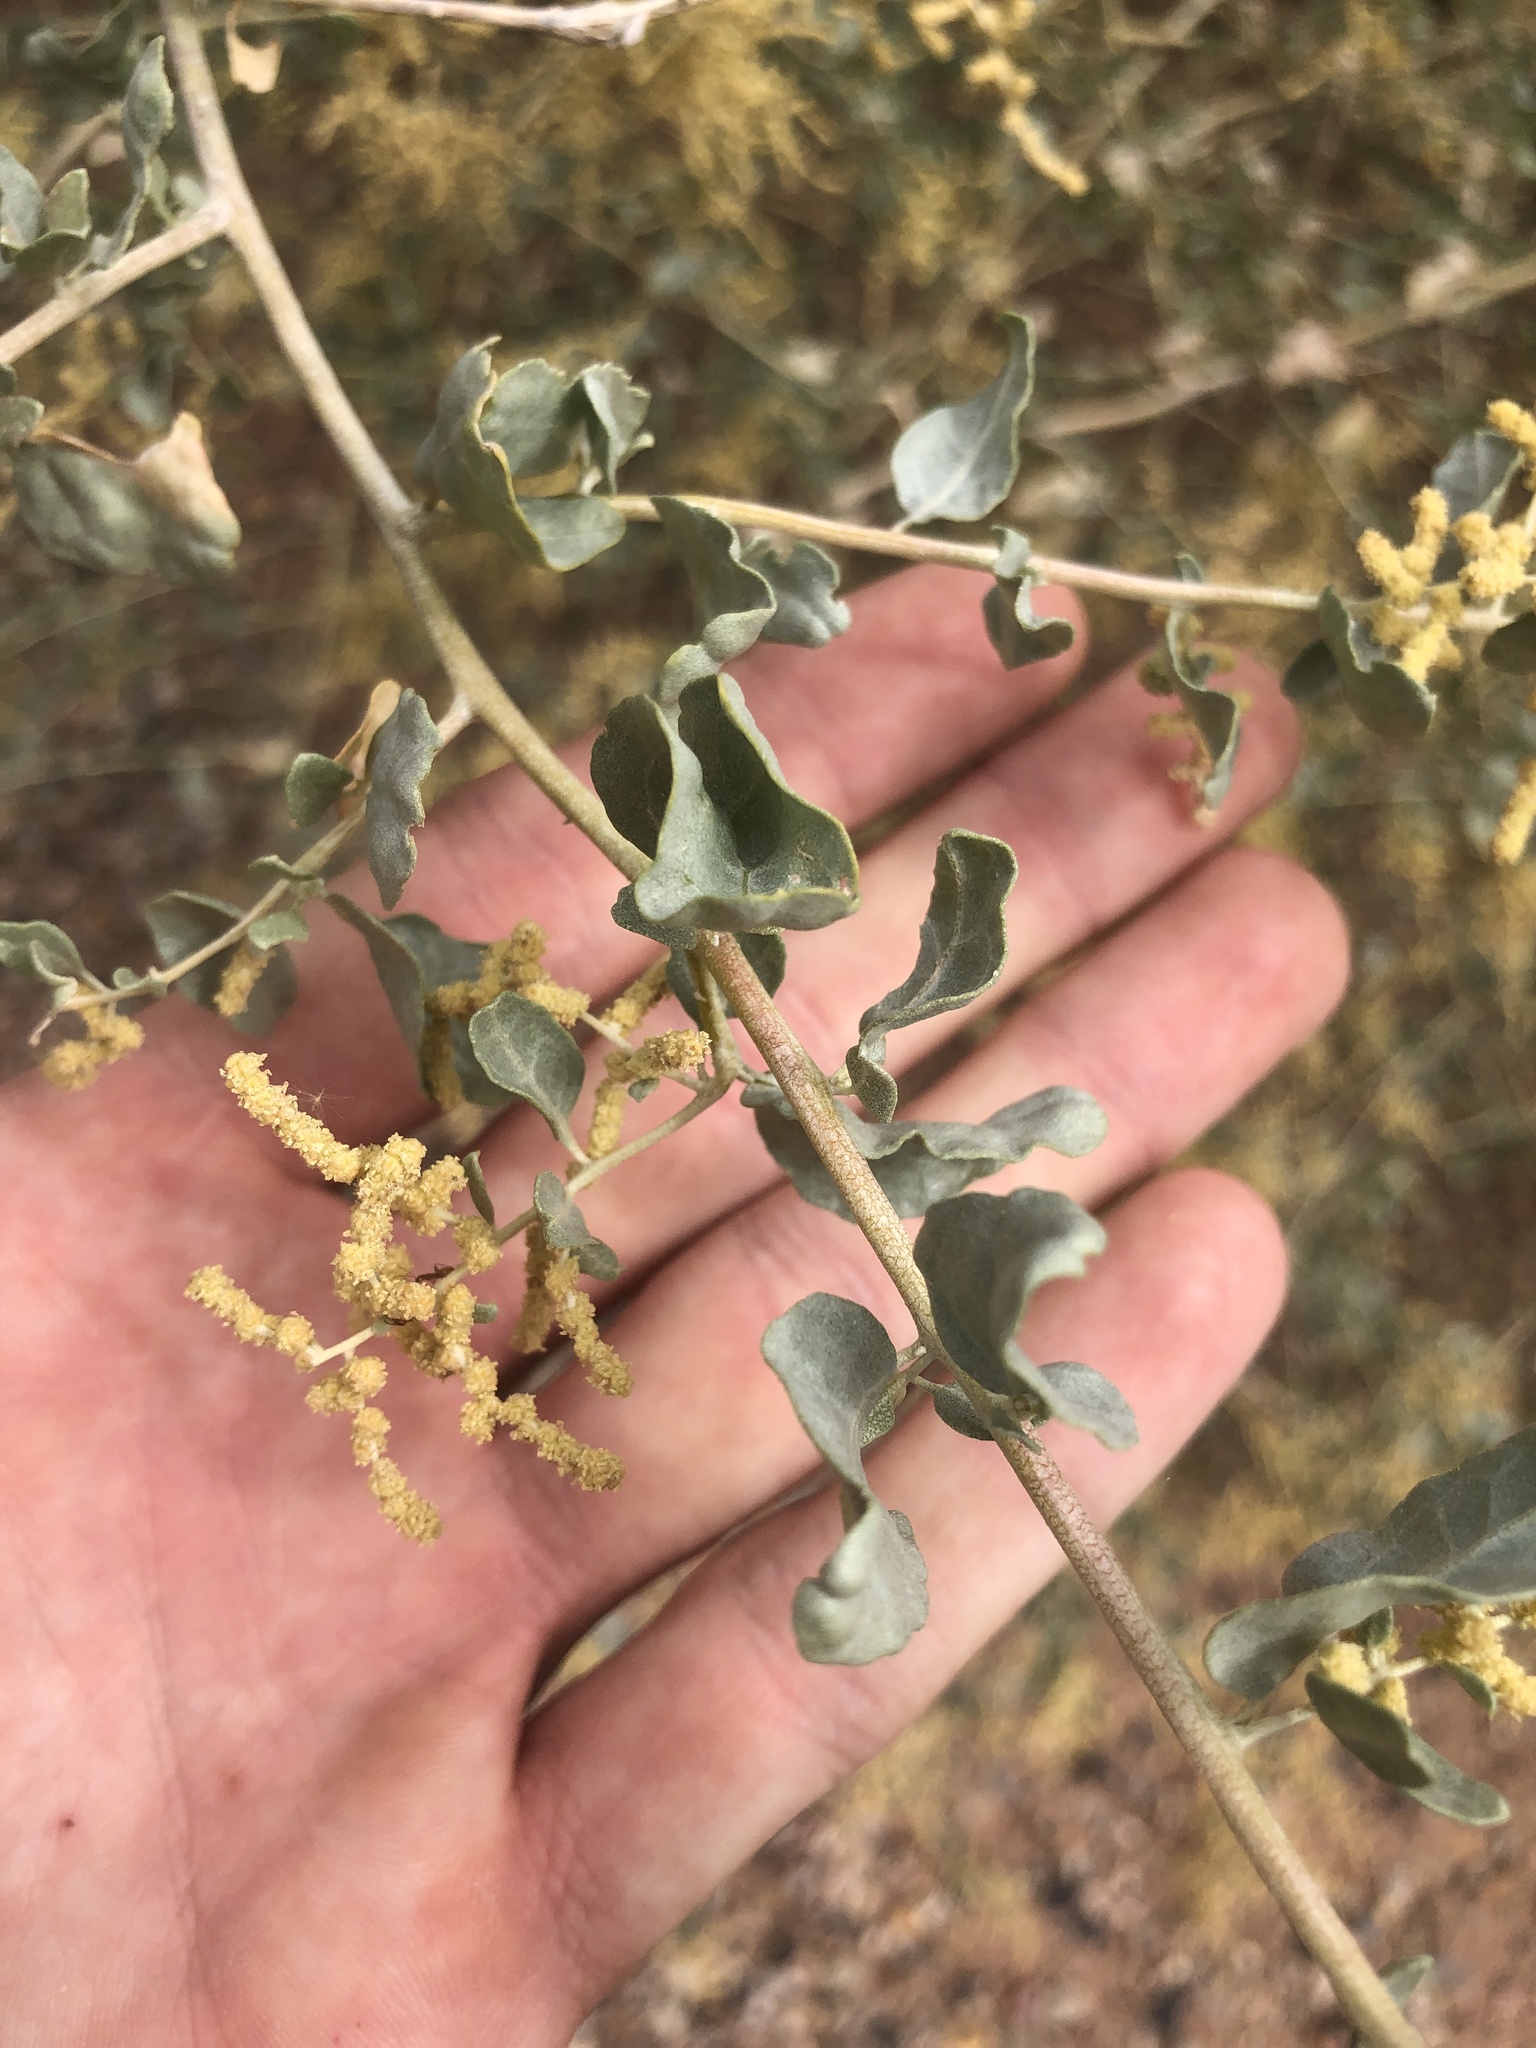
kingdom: Plantae
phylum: Tracheophyta
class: Magnoliopsida
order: Caryophyllales
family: Amaranthaceae
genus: Atriplex
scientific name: Atriplex lentiformis
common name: Big saltbush
